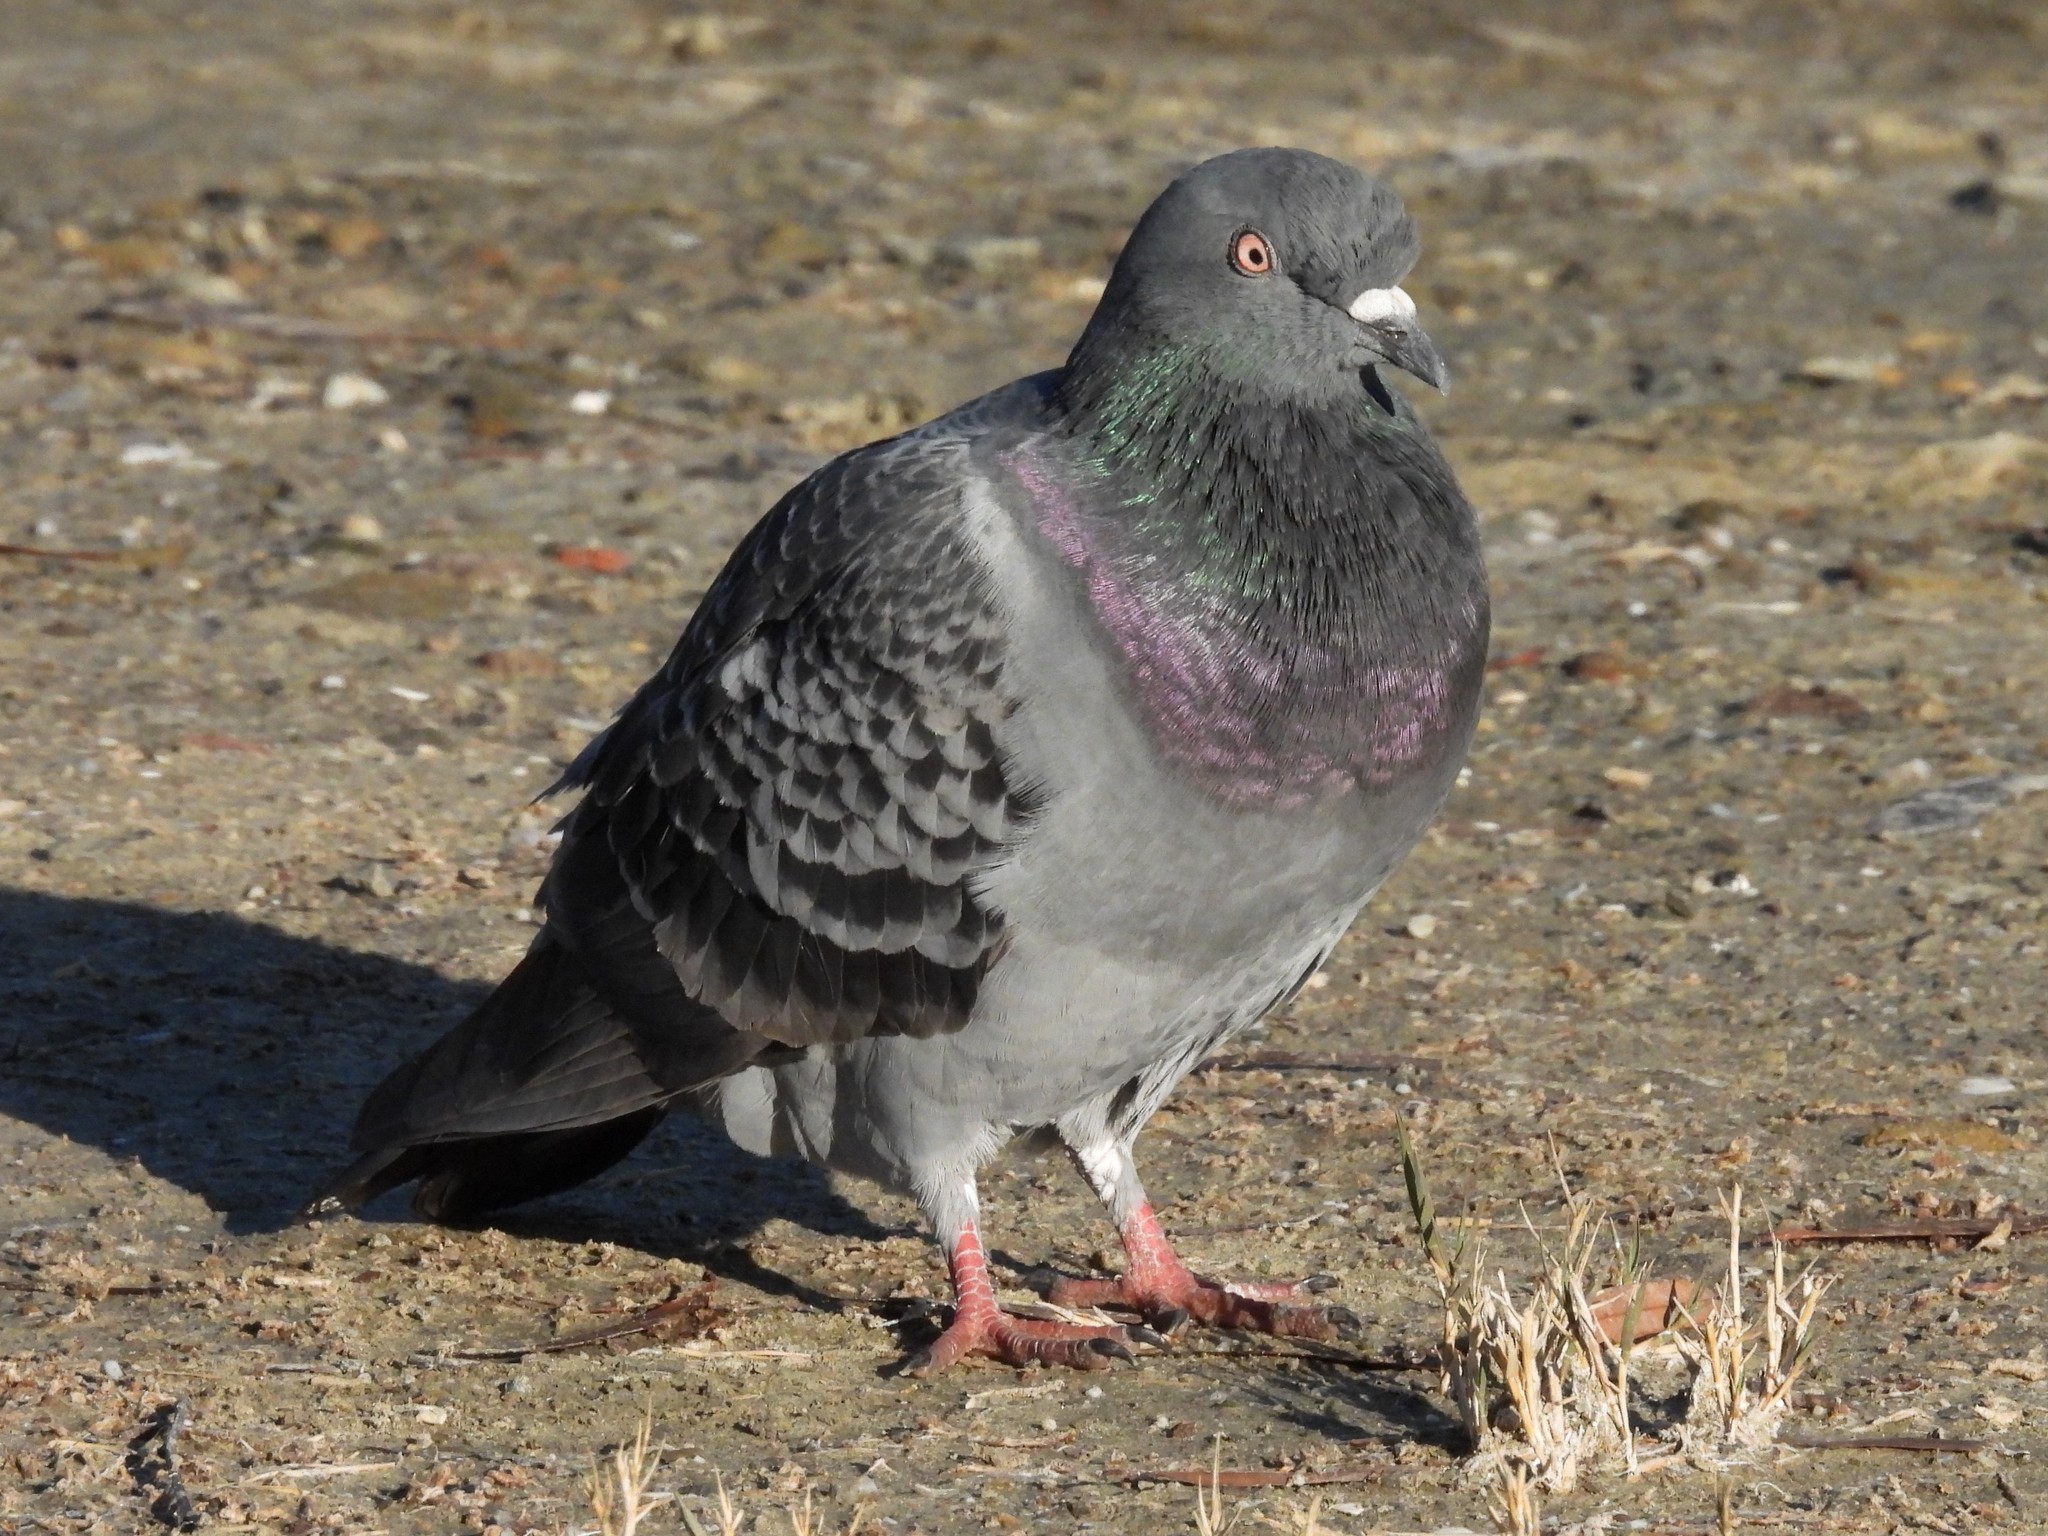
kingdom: Animalia
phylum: Chordata
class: Aves
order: Columbiformes
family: Columbidae
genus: Columba
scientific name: Columba livia
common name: Rock pigeon
